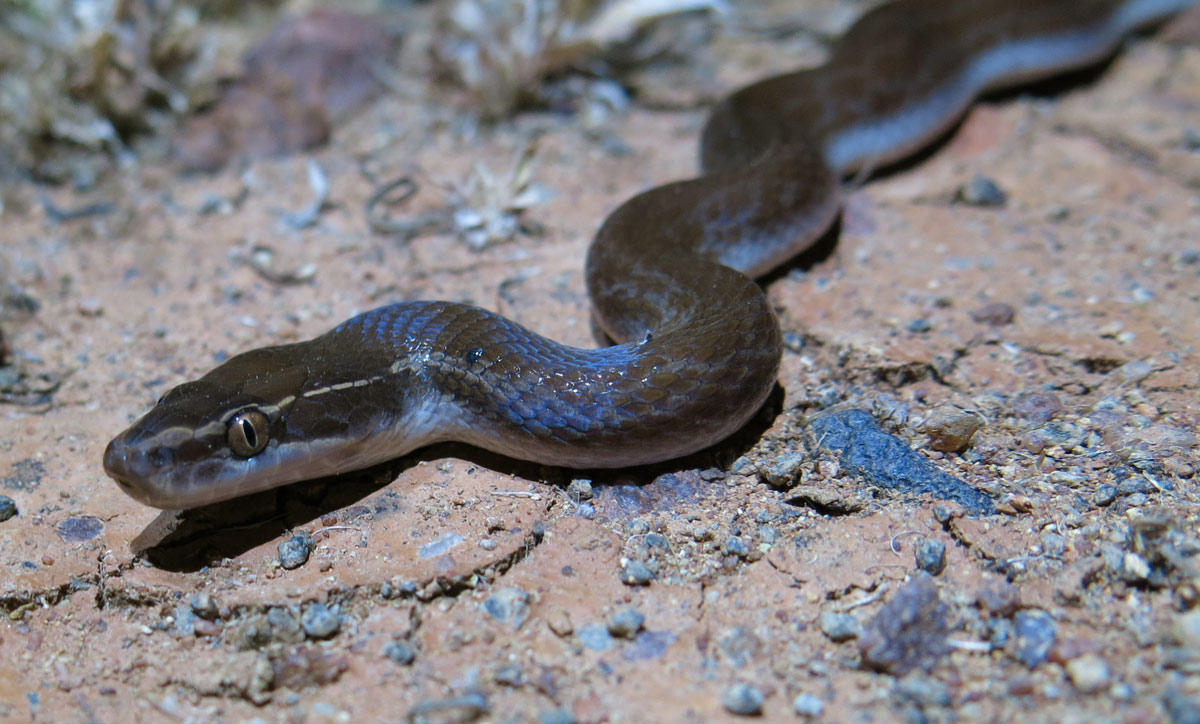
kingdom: Animalia
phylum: Chordata
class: Squamata
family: Lamprophiidae
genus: Boaedon
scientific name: Boaedon capensis
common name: Brown house snake
